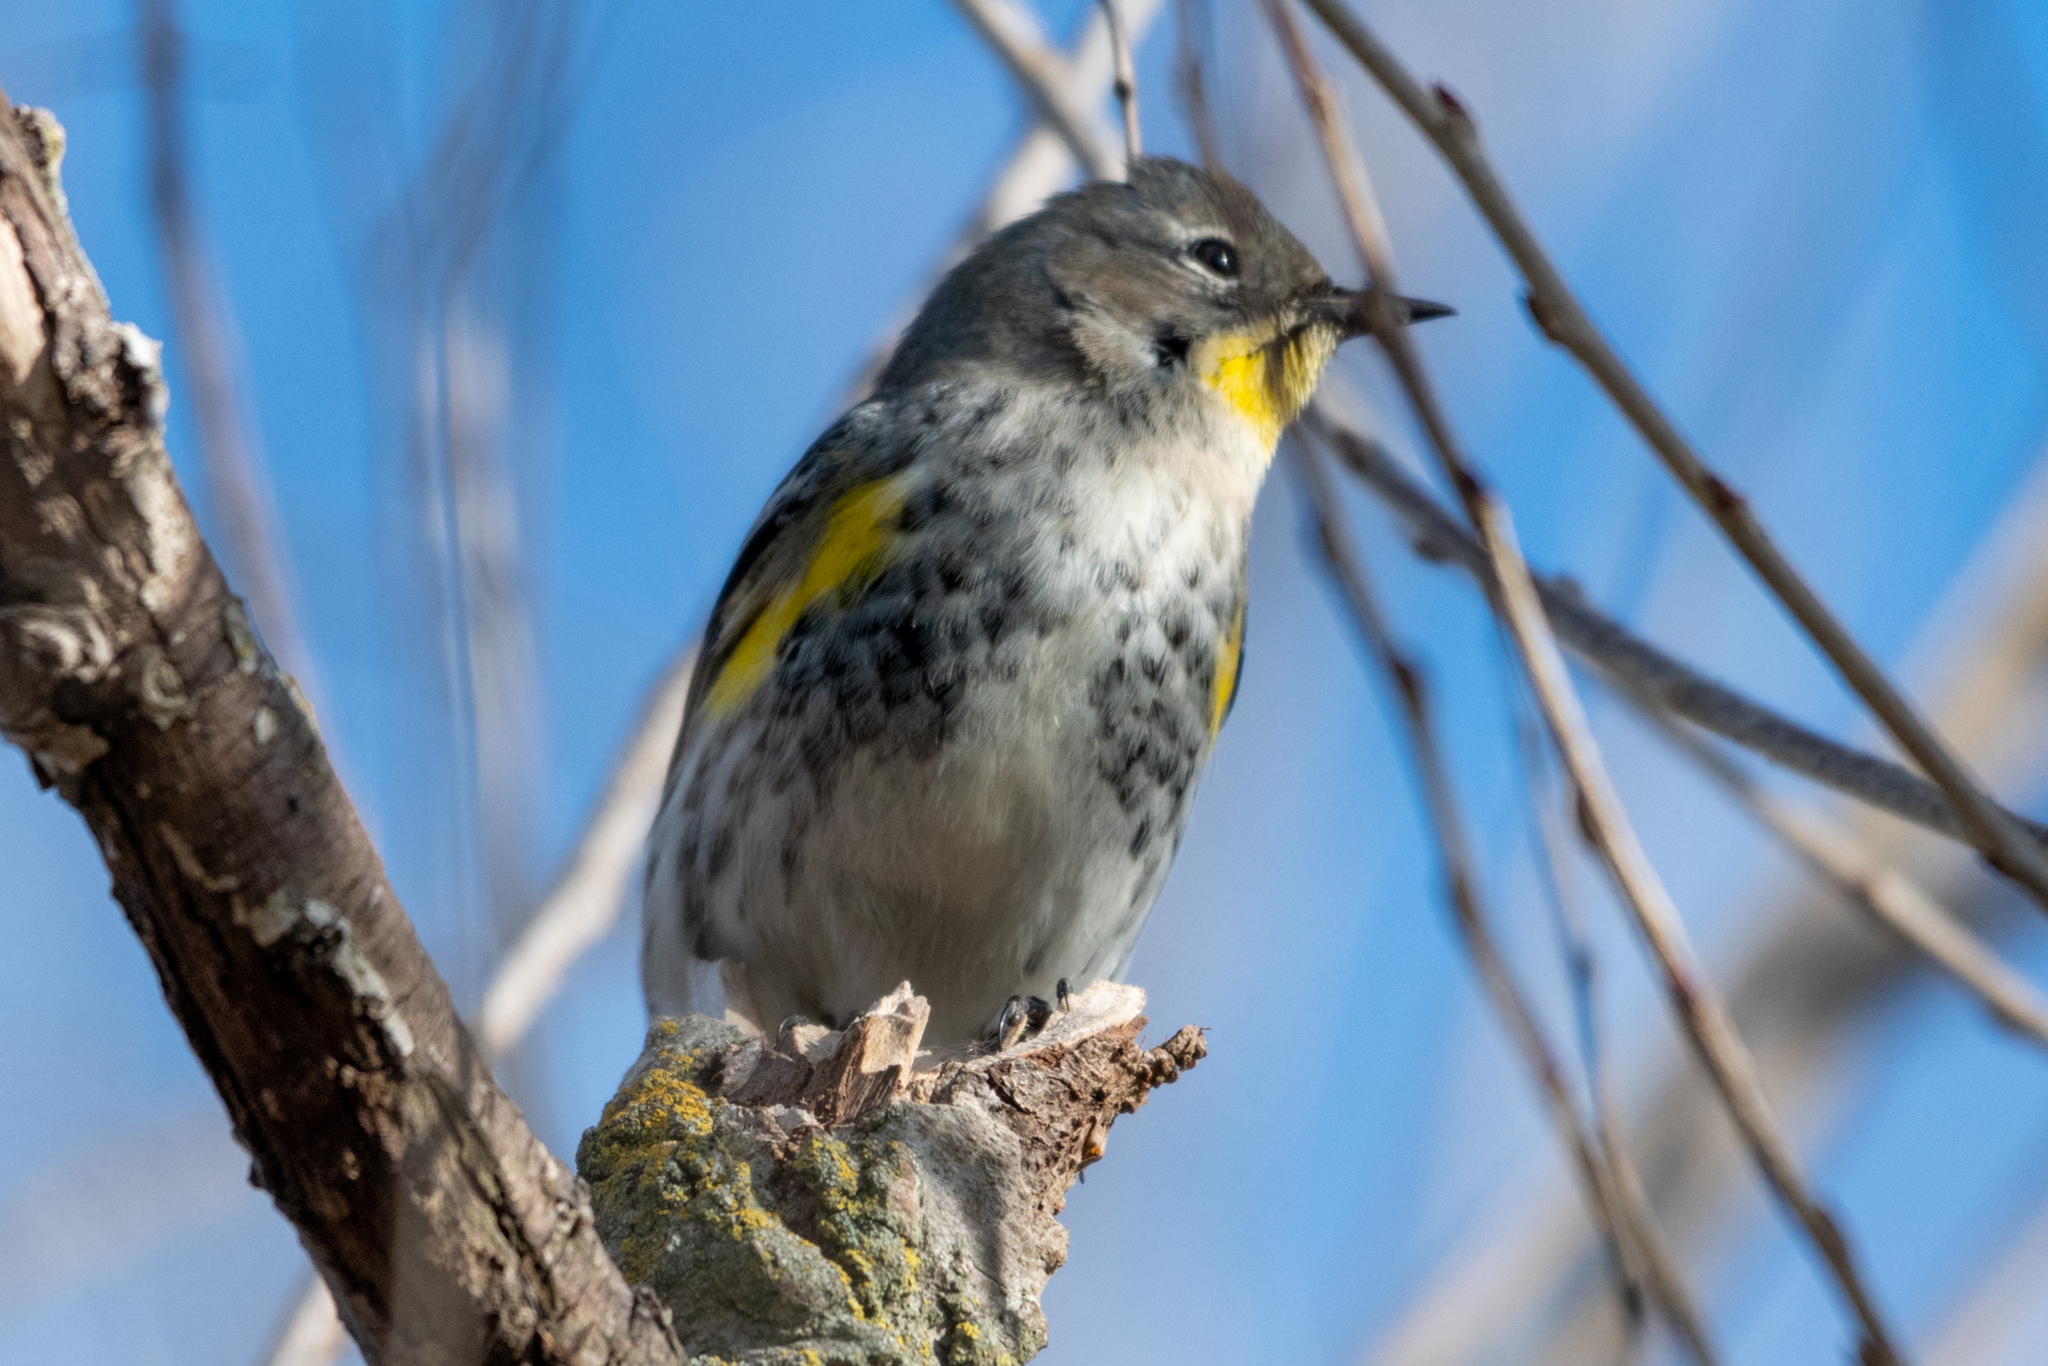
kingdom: Animalia
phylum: Chordata
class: Aves
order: Passeriformes
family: Parulidae
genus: Setophaga
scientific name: Setophaga coronata
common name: Myrtle warbler
